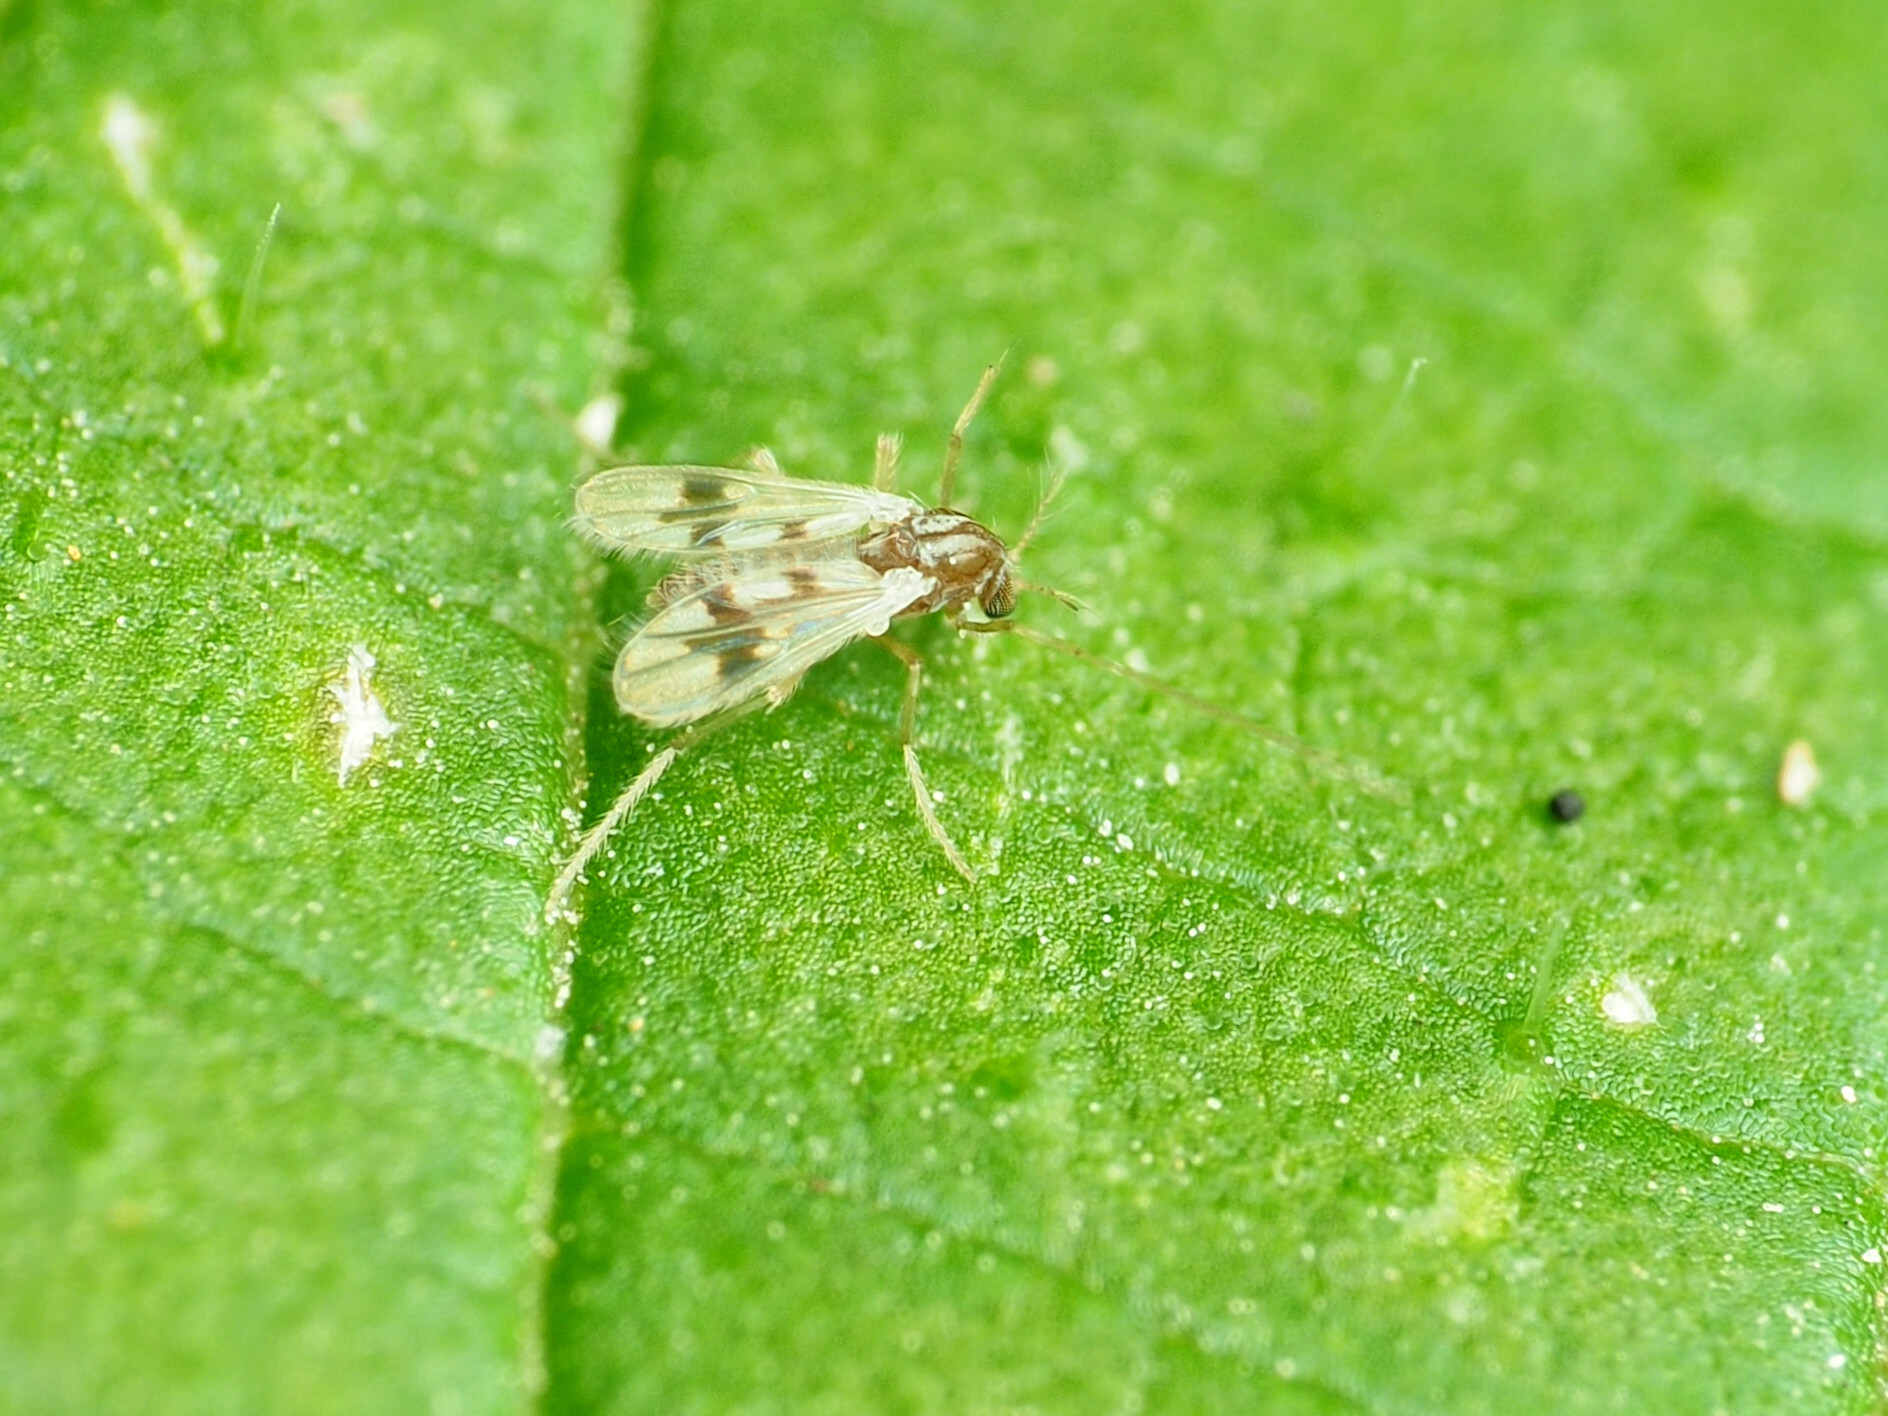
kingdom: Animalia
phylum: Arthropoda
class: Insecta
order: Diptera
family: Chironomidae
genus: Polypedilum
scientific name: Polypedilum scalaenum
